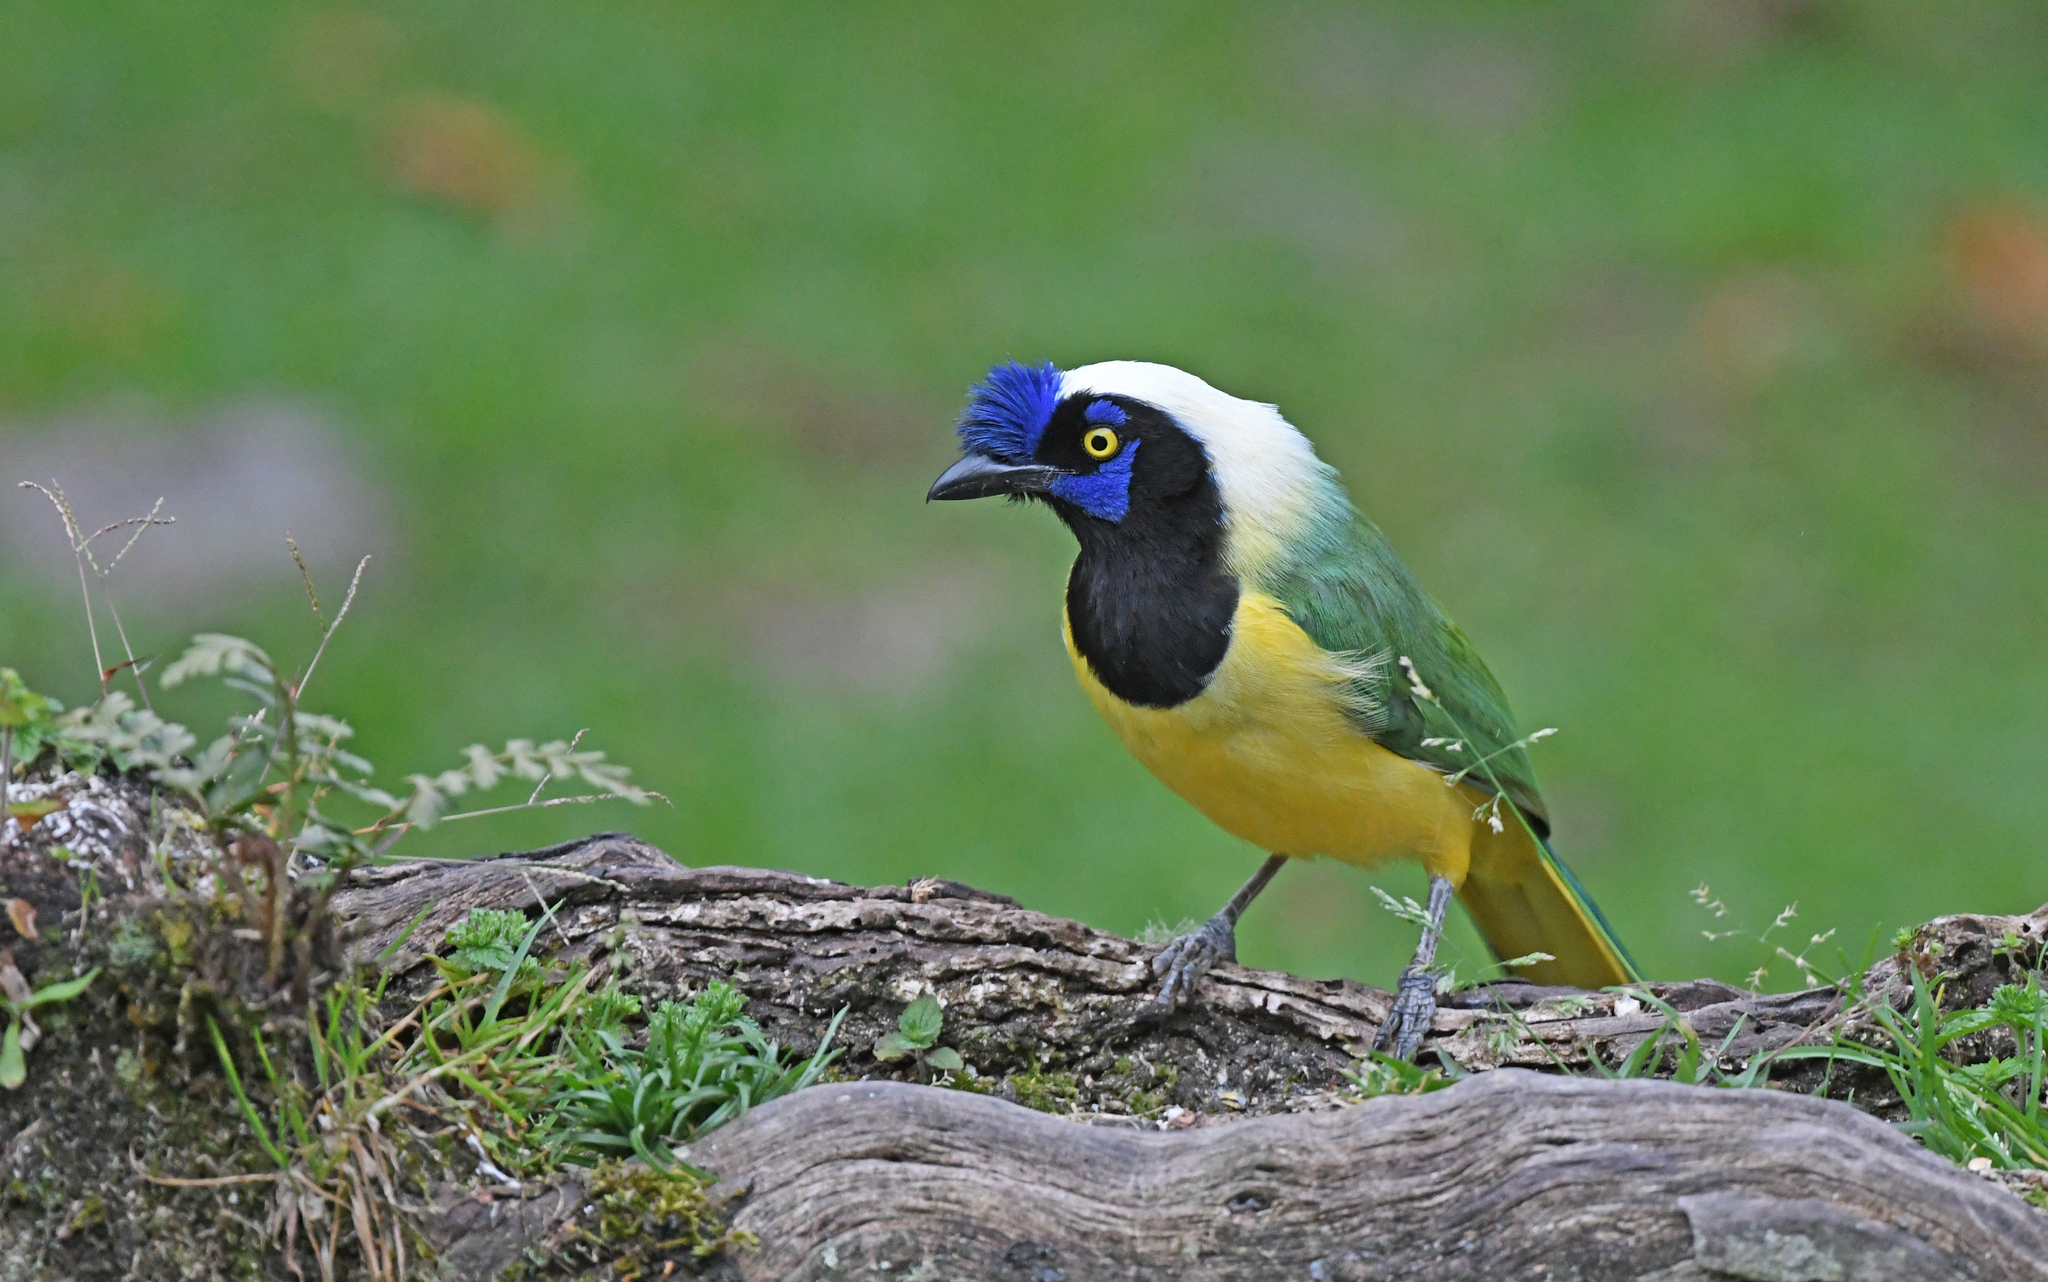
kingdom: Animalia
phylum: Chordata
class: Aves
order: Passeriformes
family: Corvidae
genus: Cyanocorax
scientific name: Cyanocorax yncas
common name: Green jay
